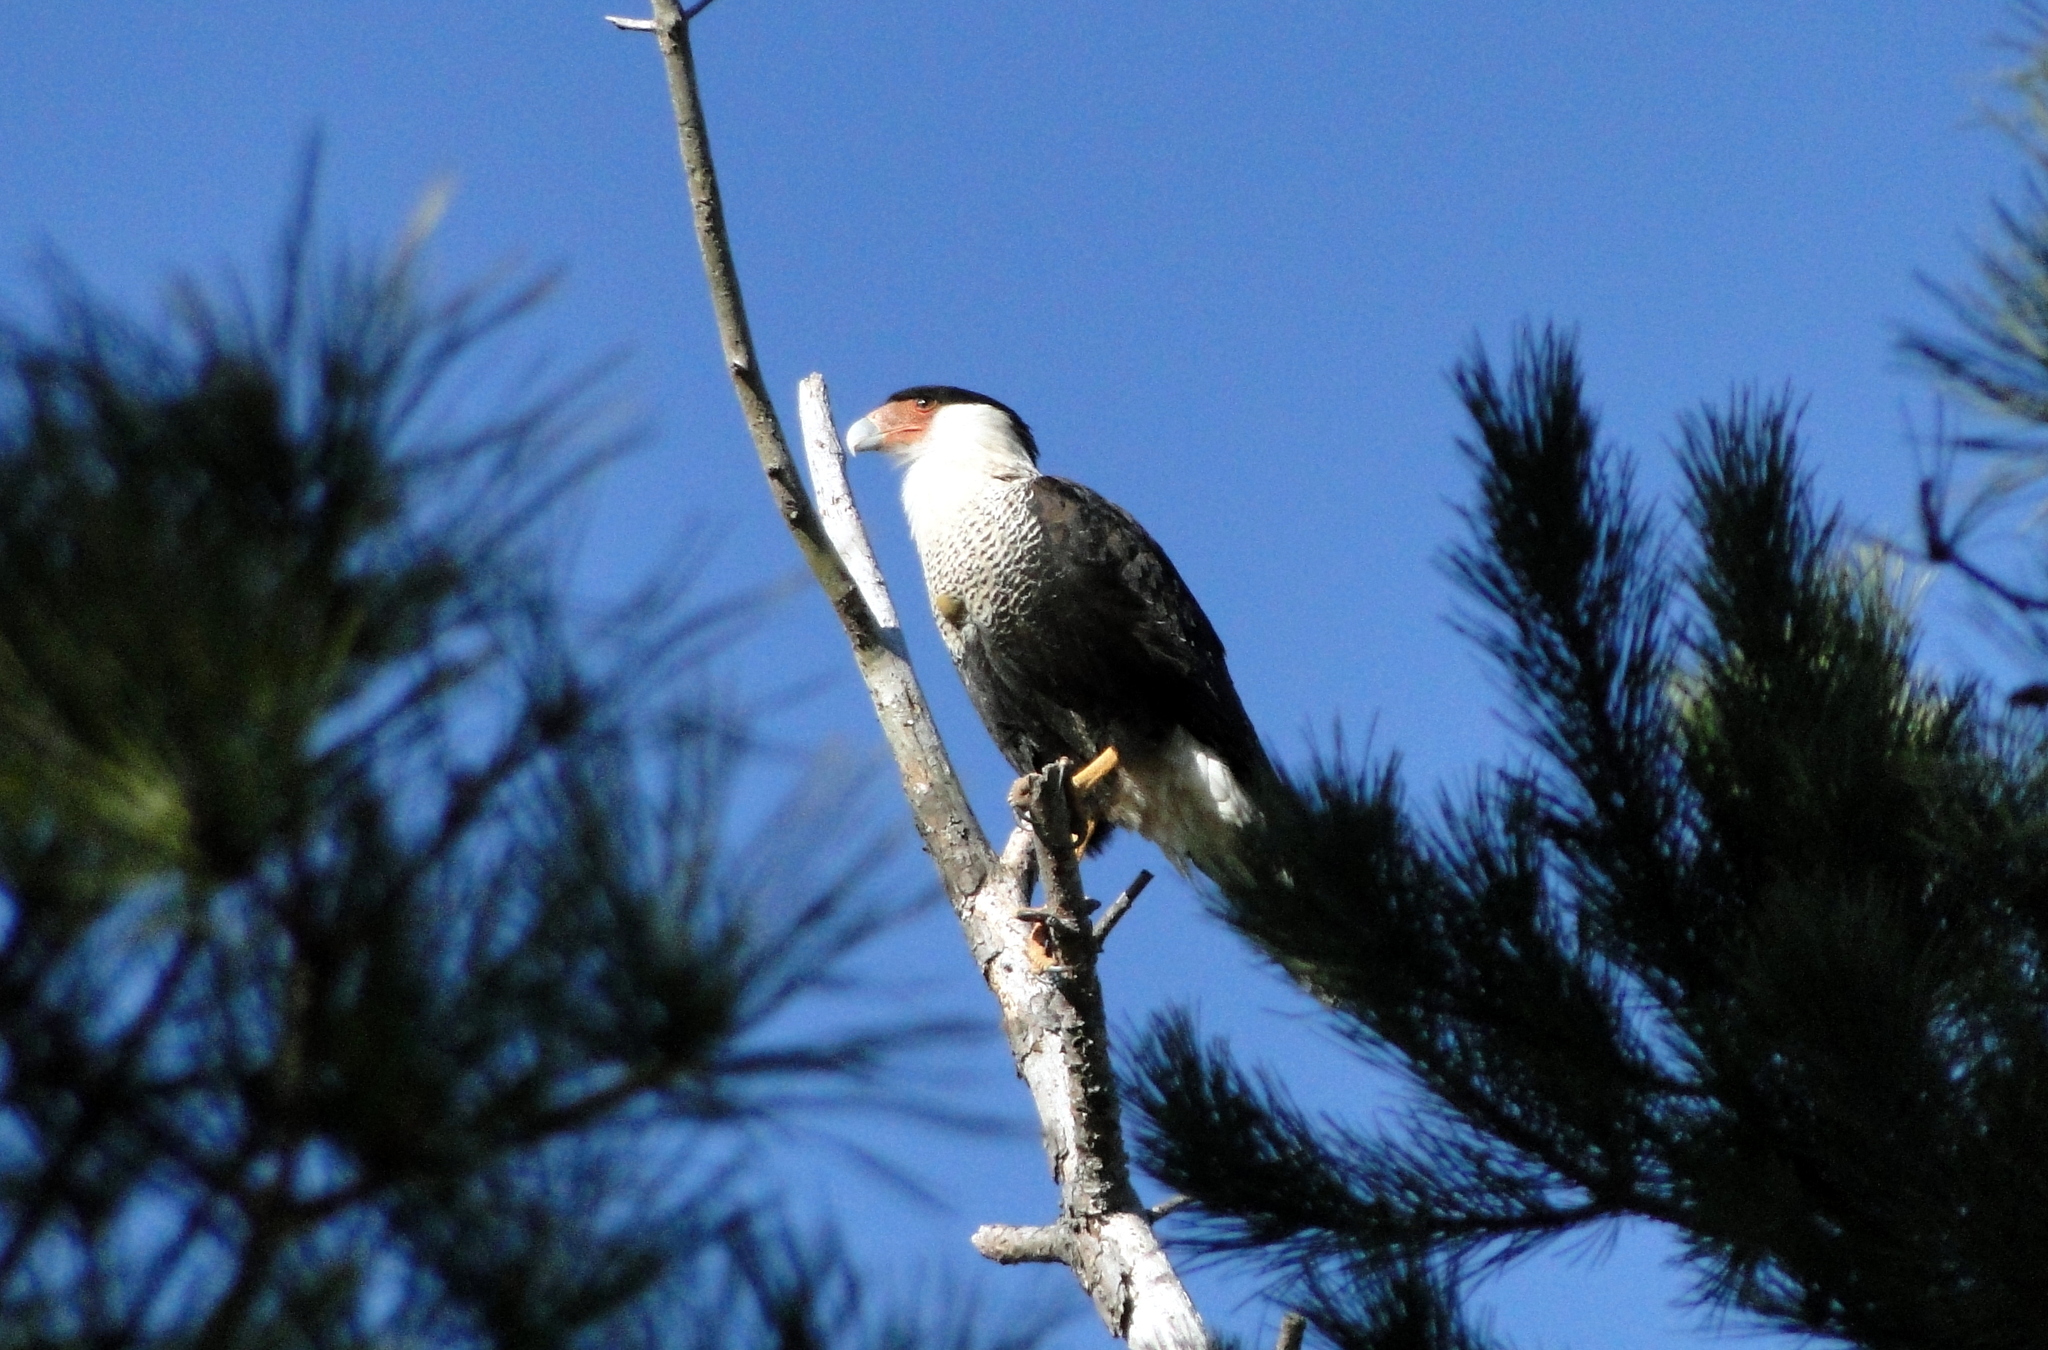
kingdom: Animalia
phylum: Chordata
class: Aves
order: Falconiformes
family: Falconidae
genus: Caracara
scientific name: Caracara plancus
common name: Southern caracara
